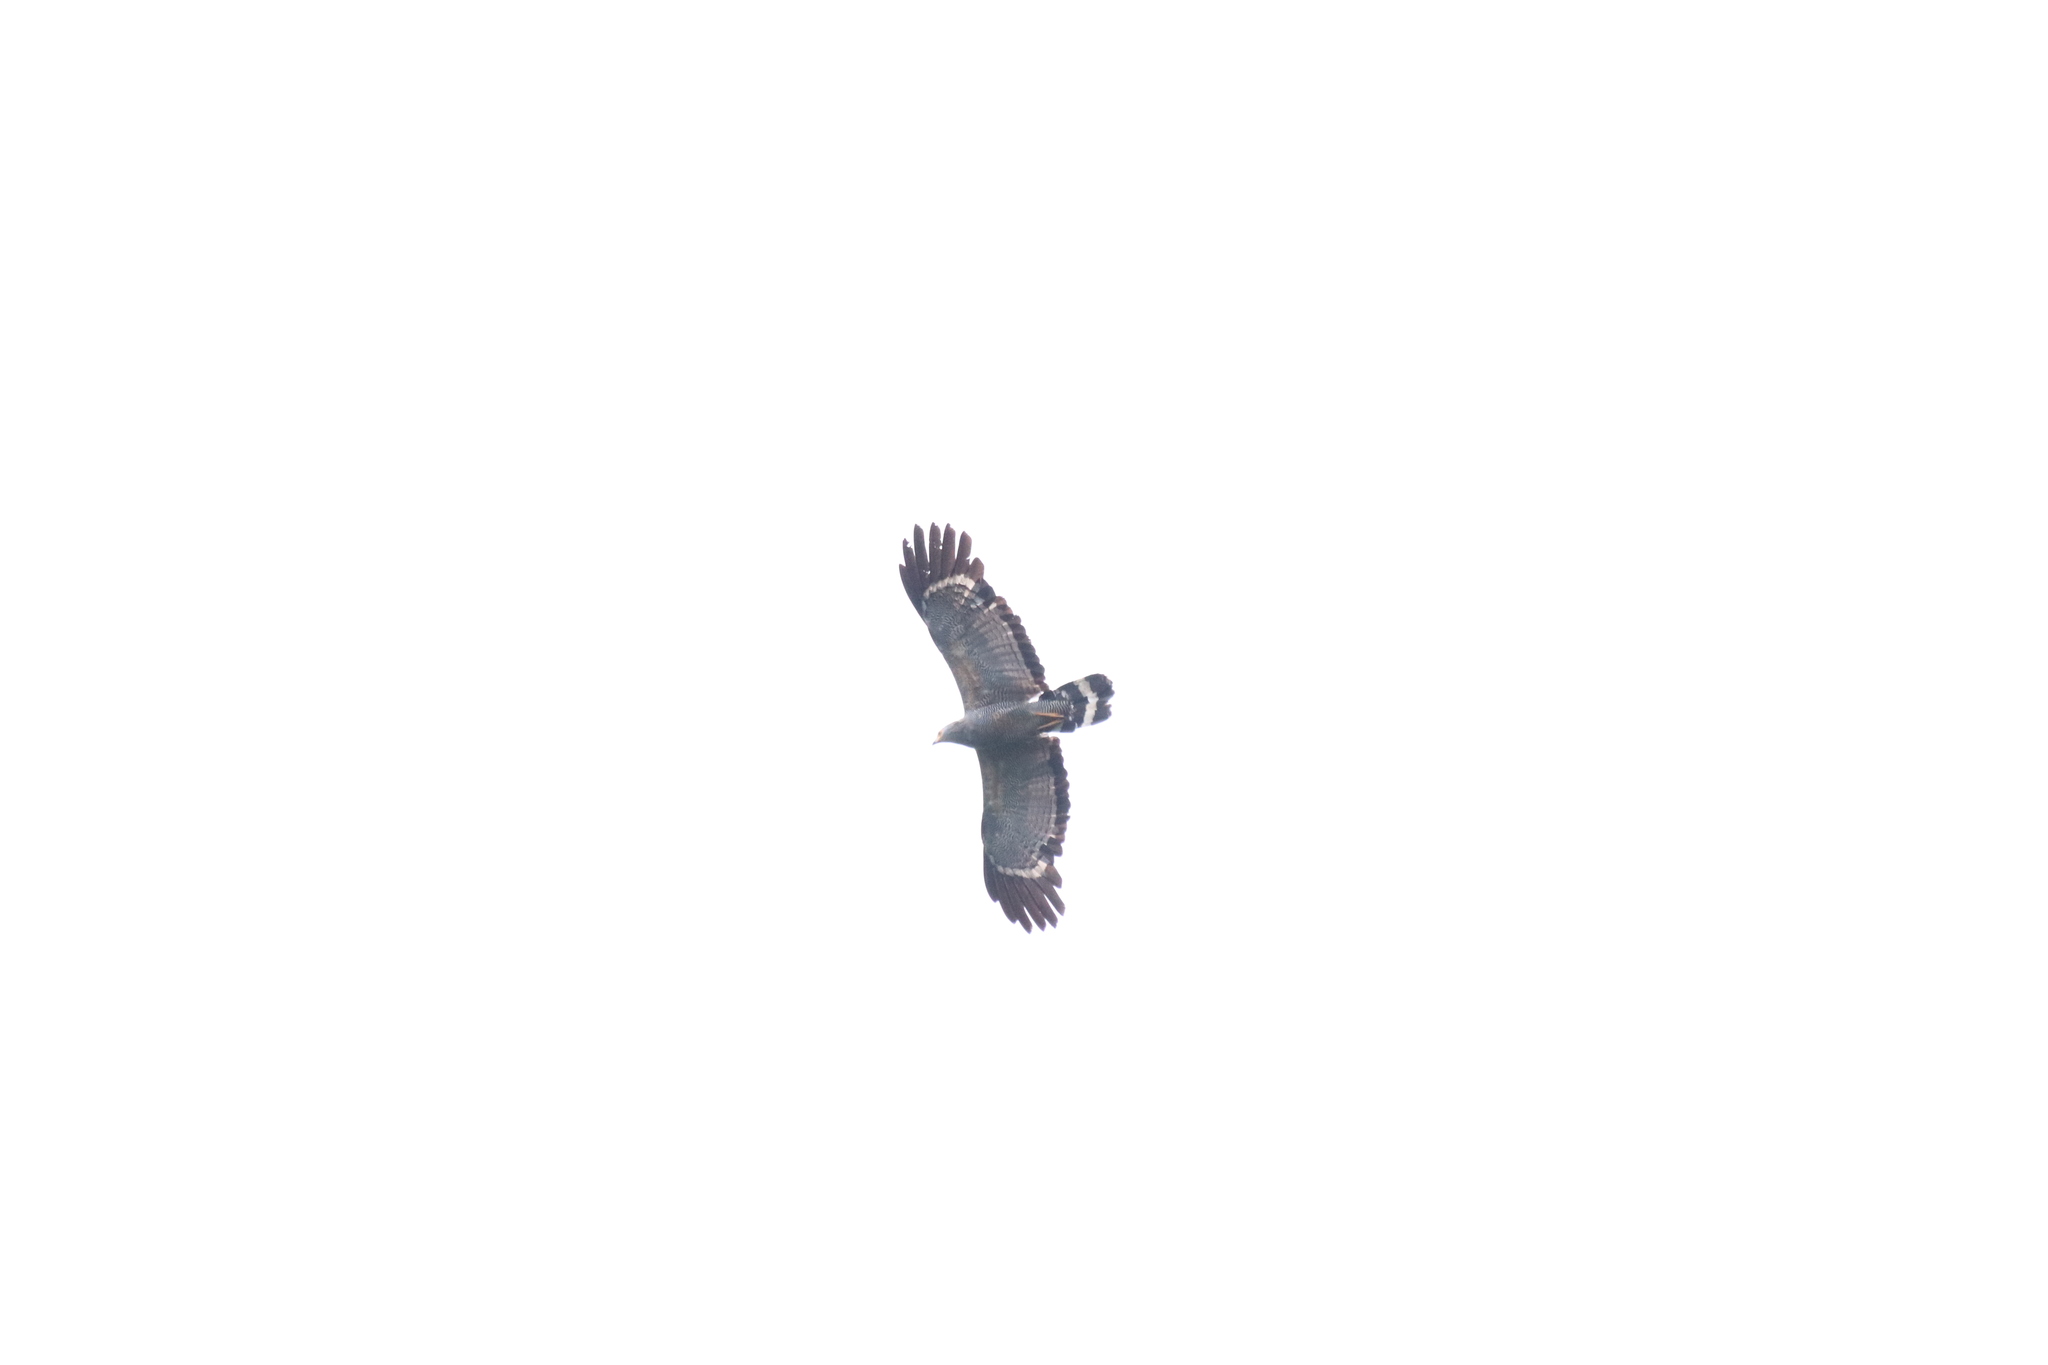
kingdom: Animalia
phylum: Chordata
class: Aves
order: Accipitriformes
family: Accipitridae
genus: Polyboroides
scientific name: Polyboroides typus
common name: African harrier-hawk
